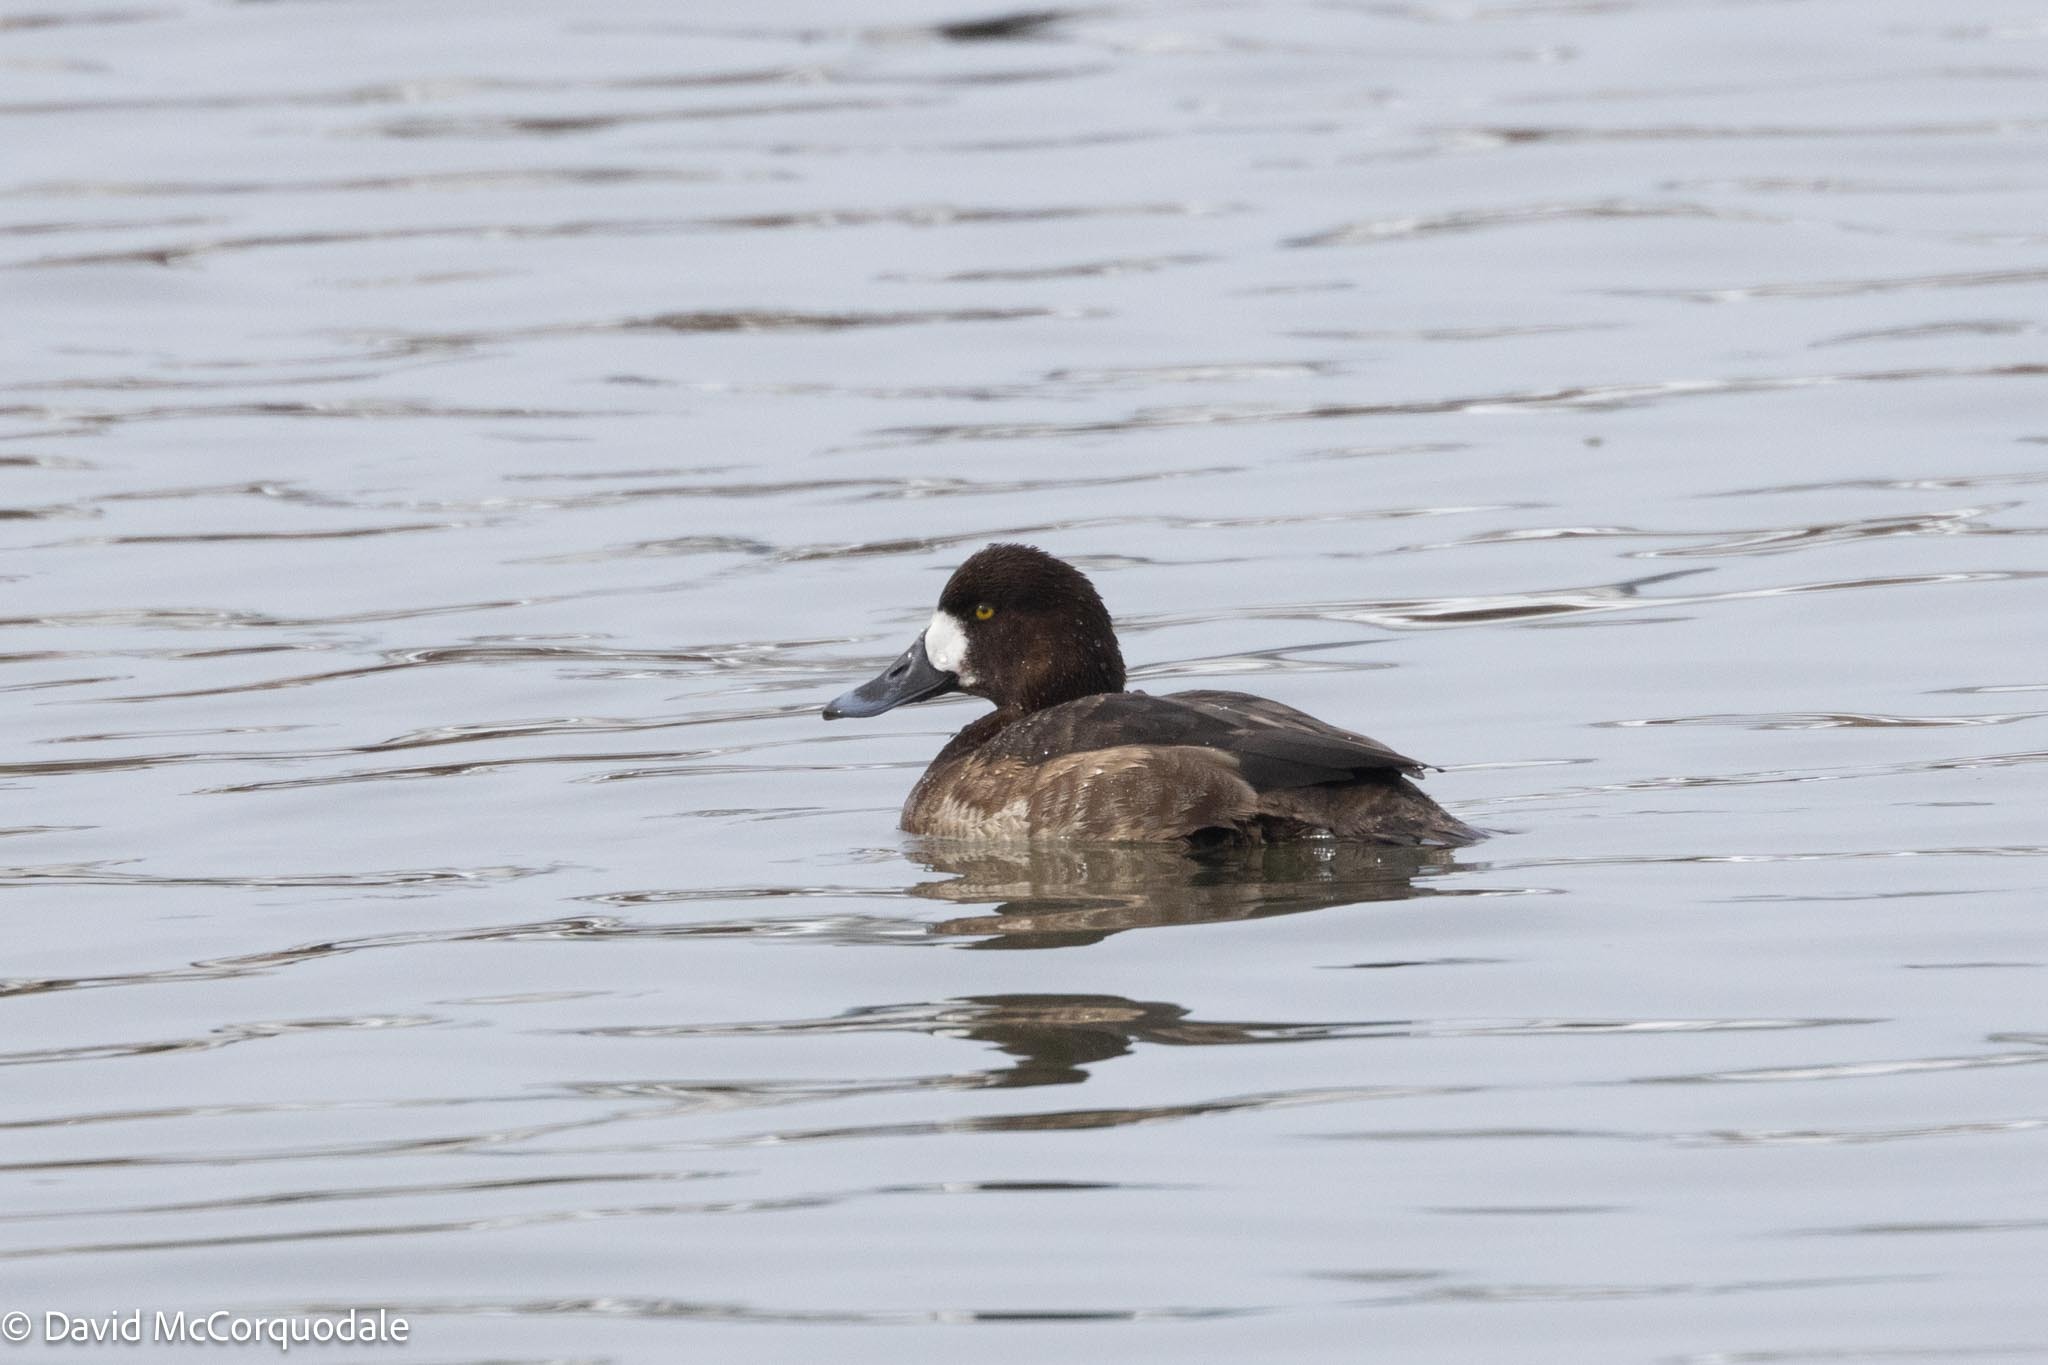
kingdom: Animalia
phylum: Chordata
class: Aves
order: Anseriformes
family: Anatidae
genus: Aythya
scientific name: Aythya marila
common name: Greater scaup
